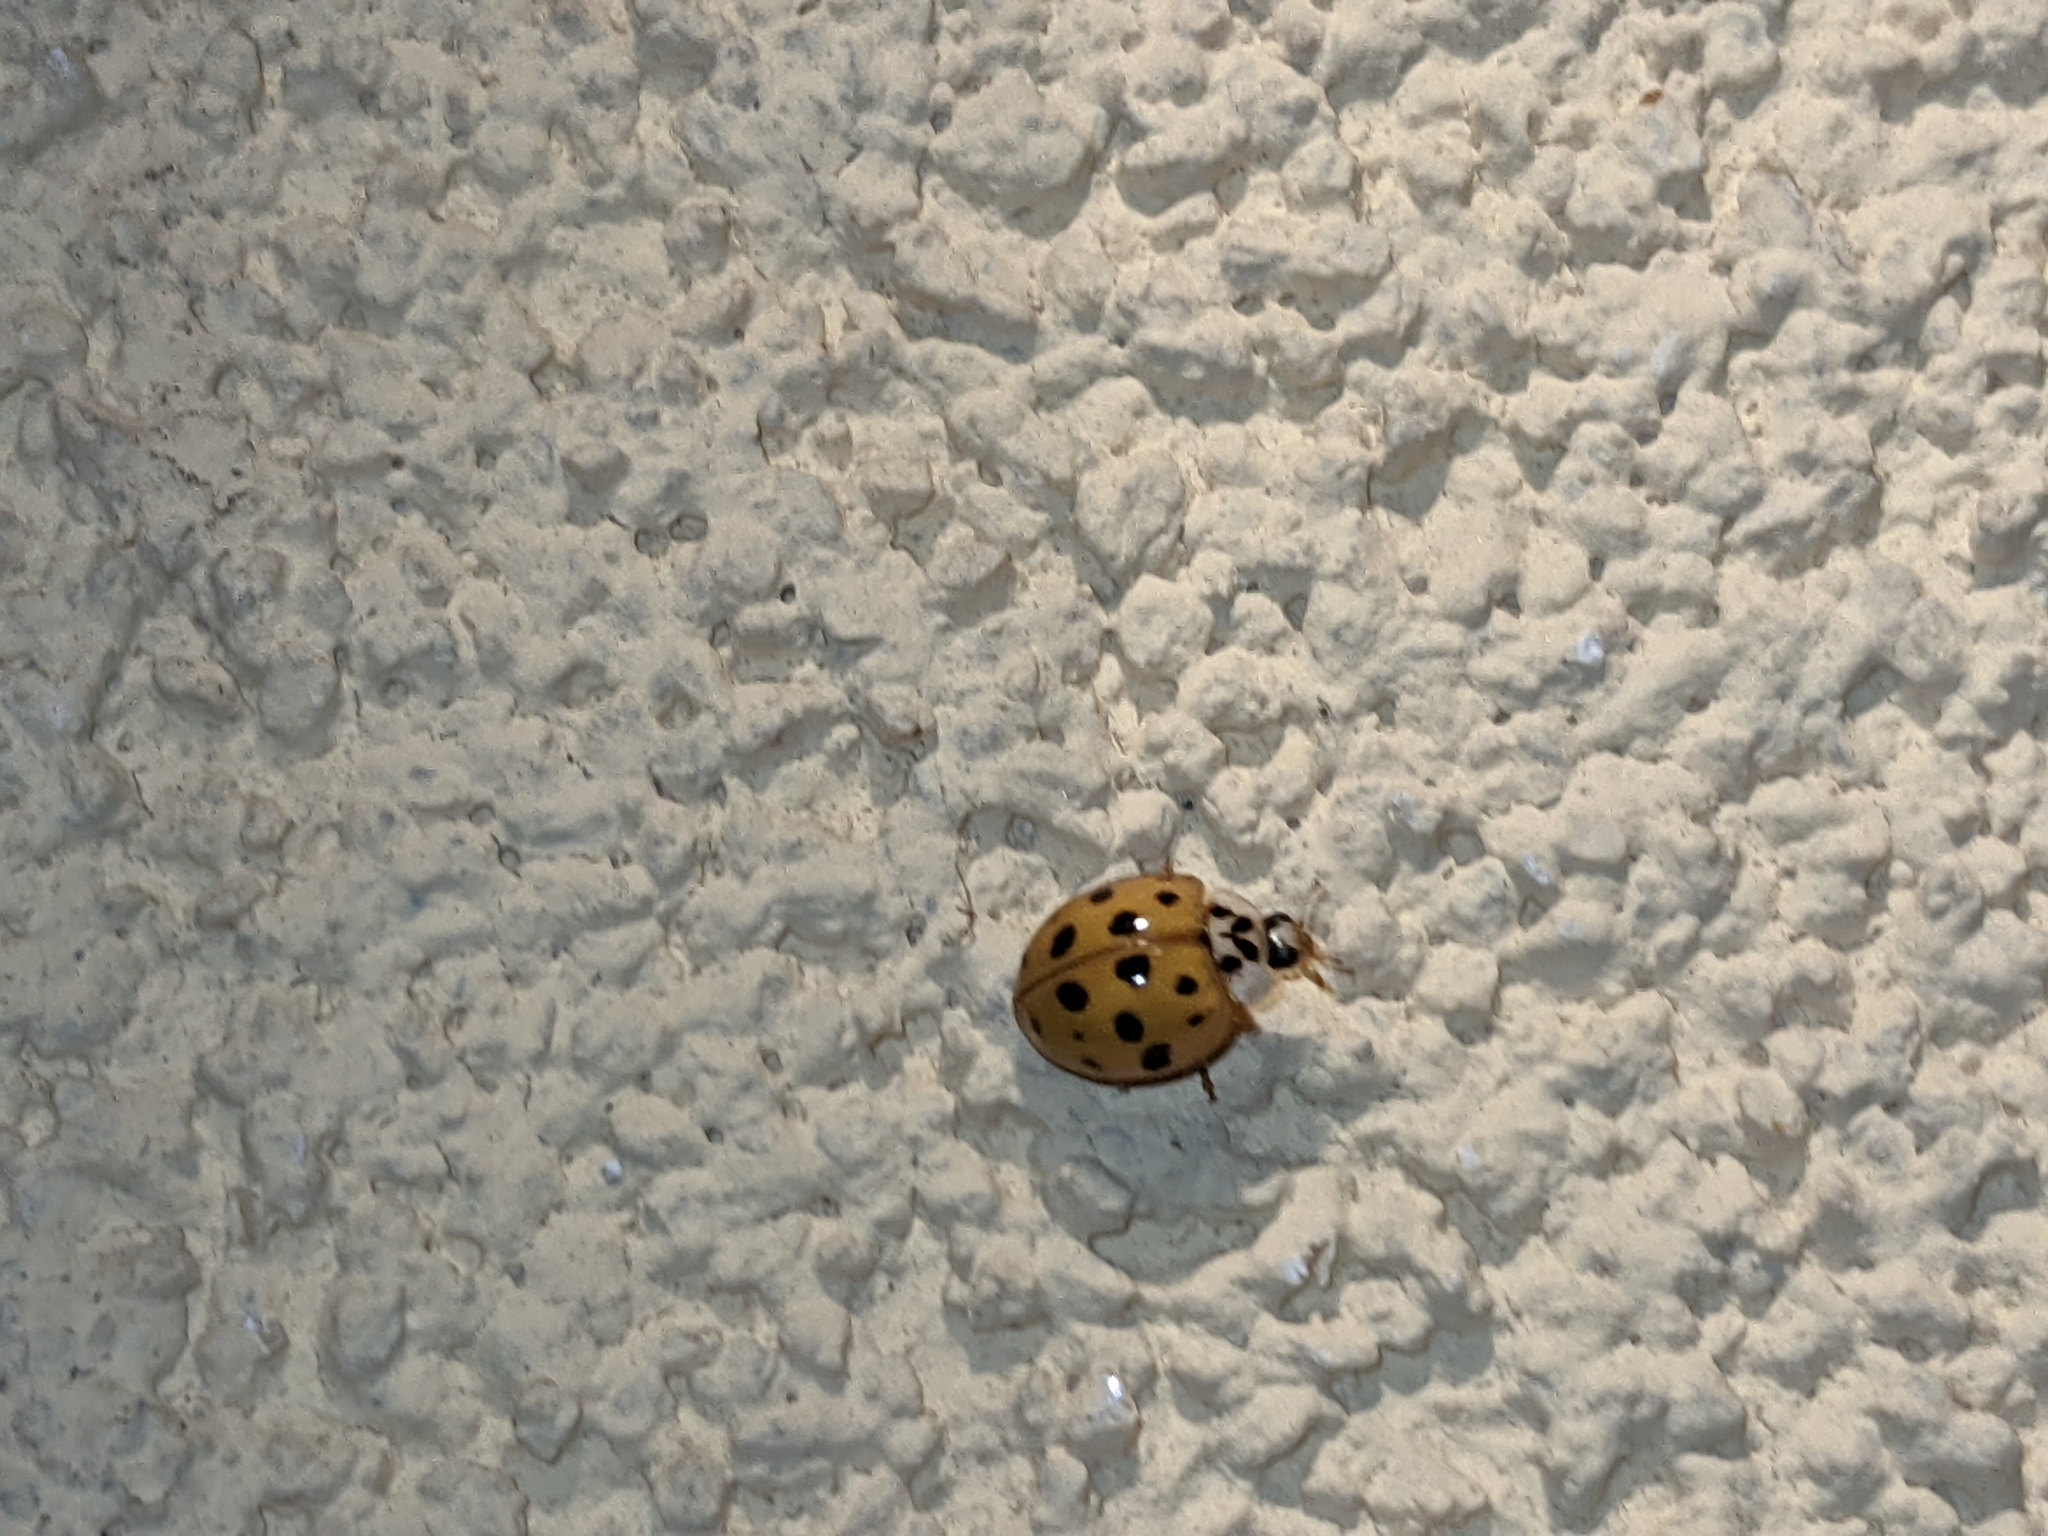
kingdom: Animalia
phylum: Arthropoda
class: Insecta
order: Coleoptera
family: Coccinellidae
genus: Harmonia
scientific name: Harmonia axyridis
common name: Harlequin ladybird
